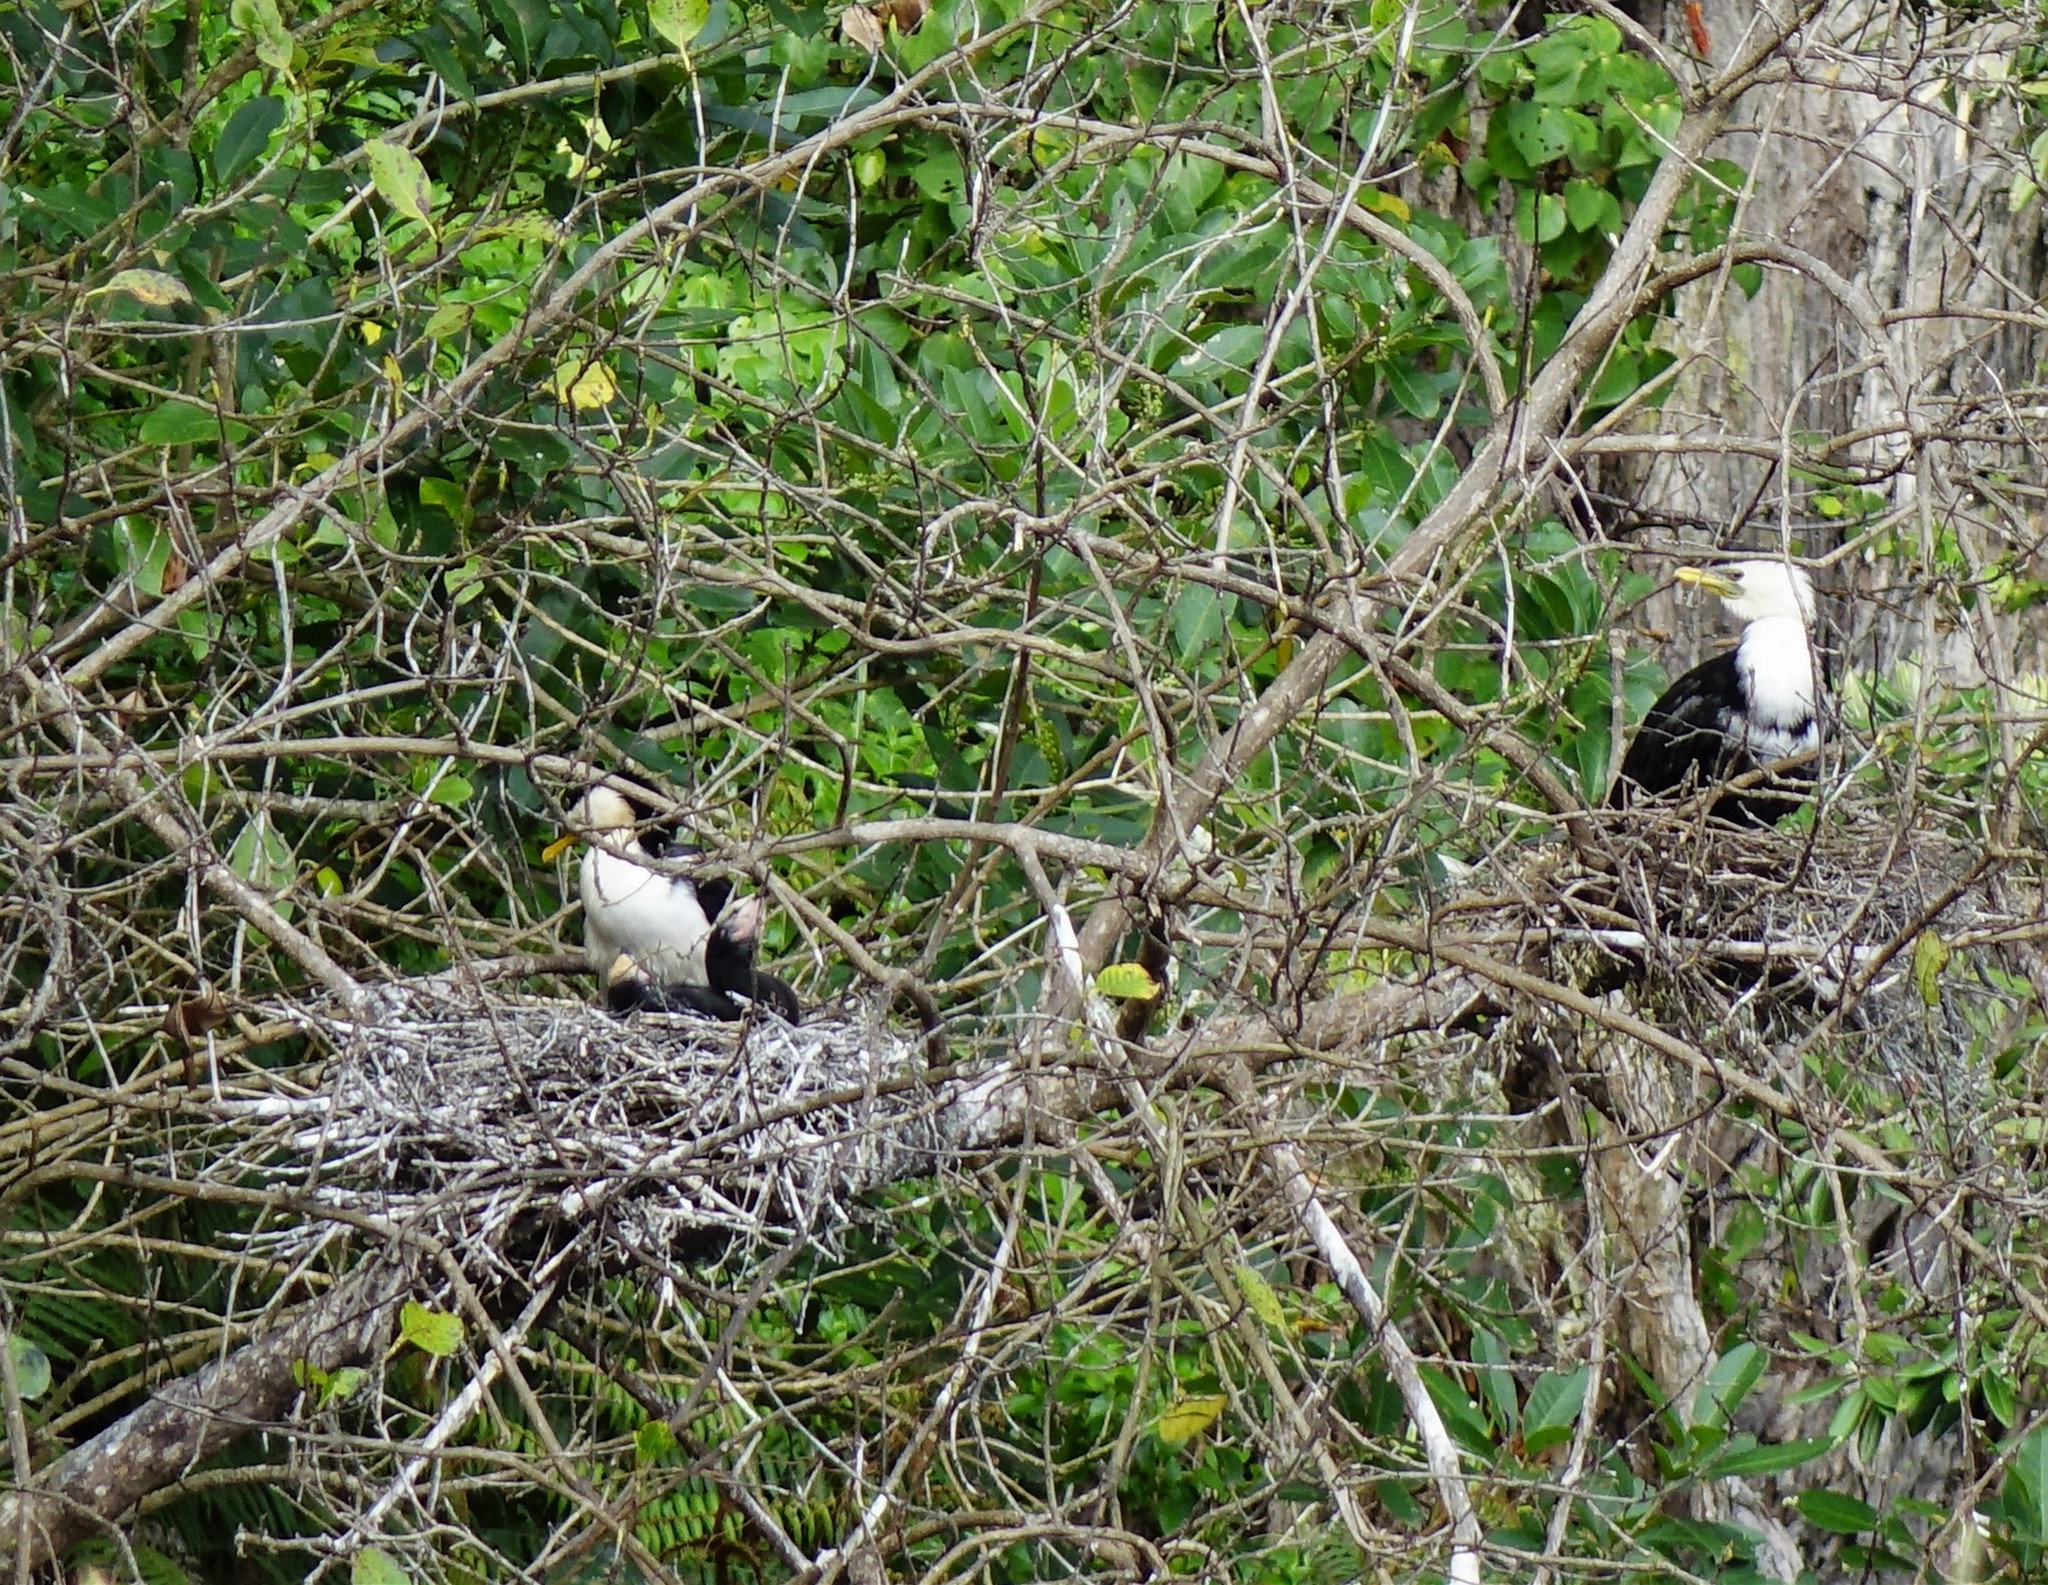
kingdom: Animalia
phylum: Chordata
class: Aves
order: Suliformes
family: Phalacrocoracidae
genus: Microcarbo
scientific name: Microcarbo melanoleucos
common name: Little pied cormorant
